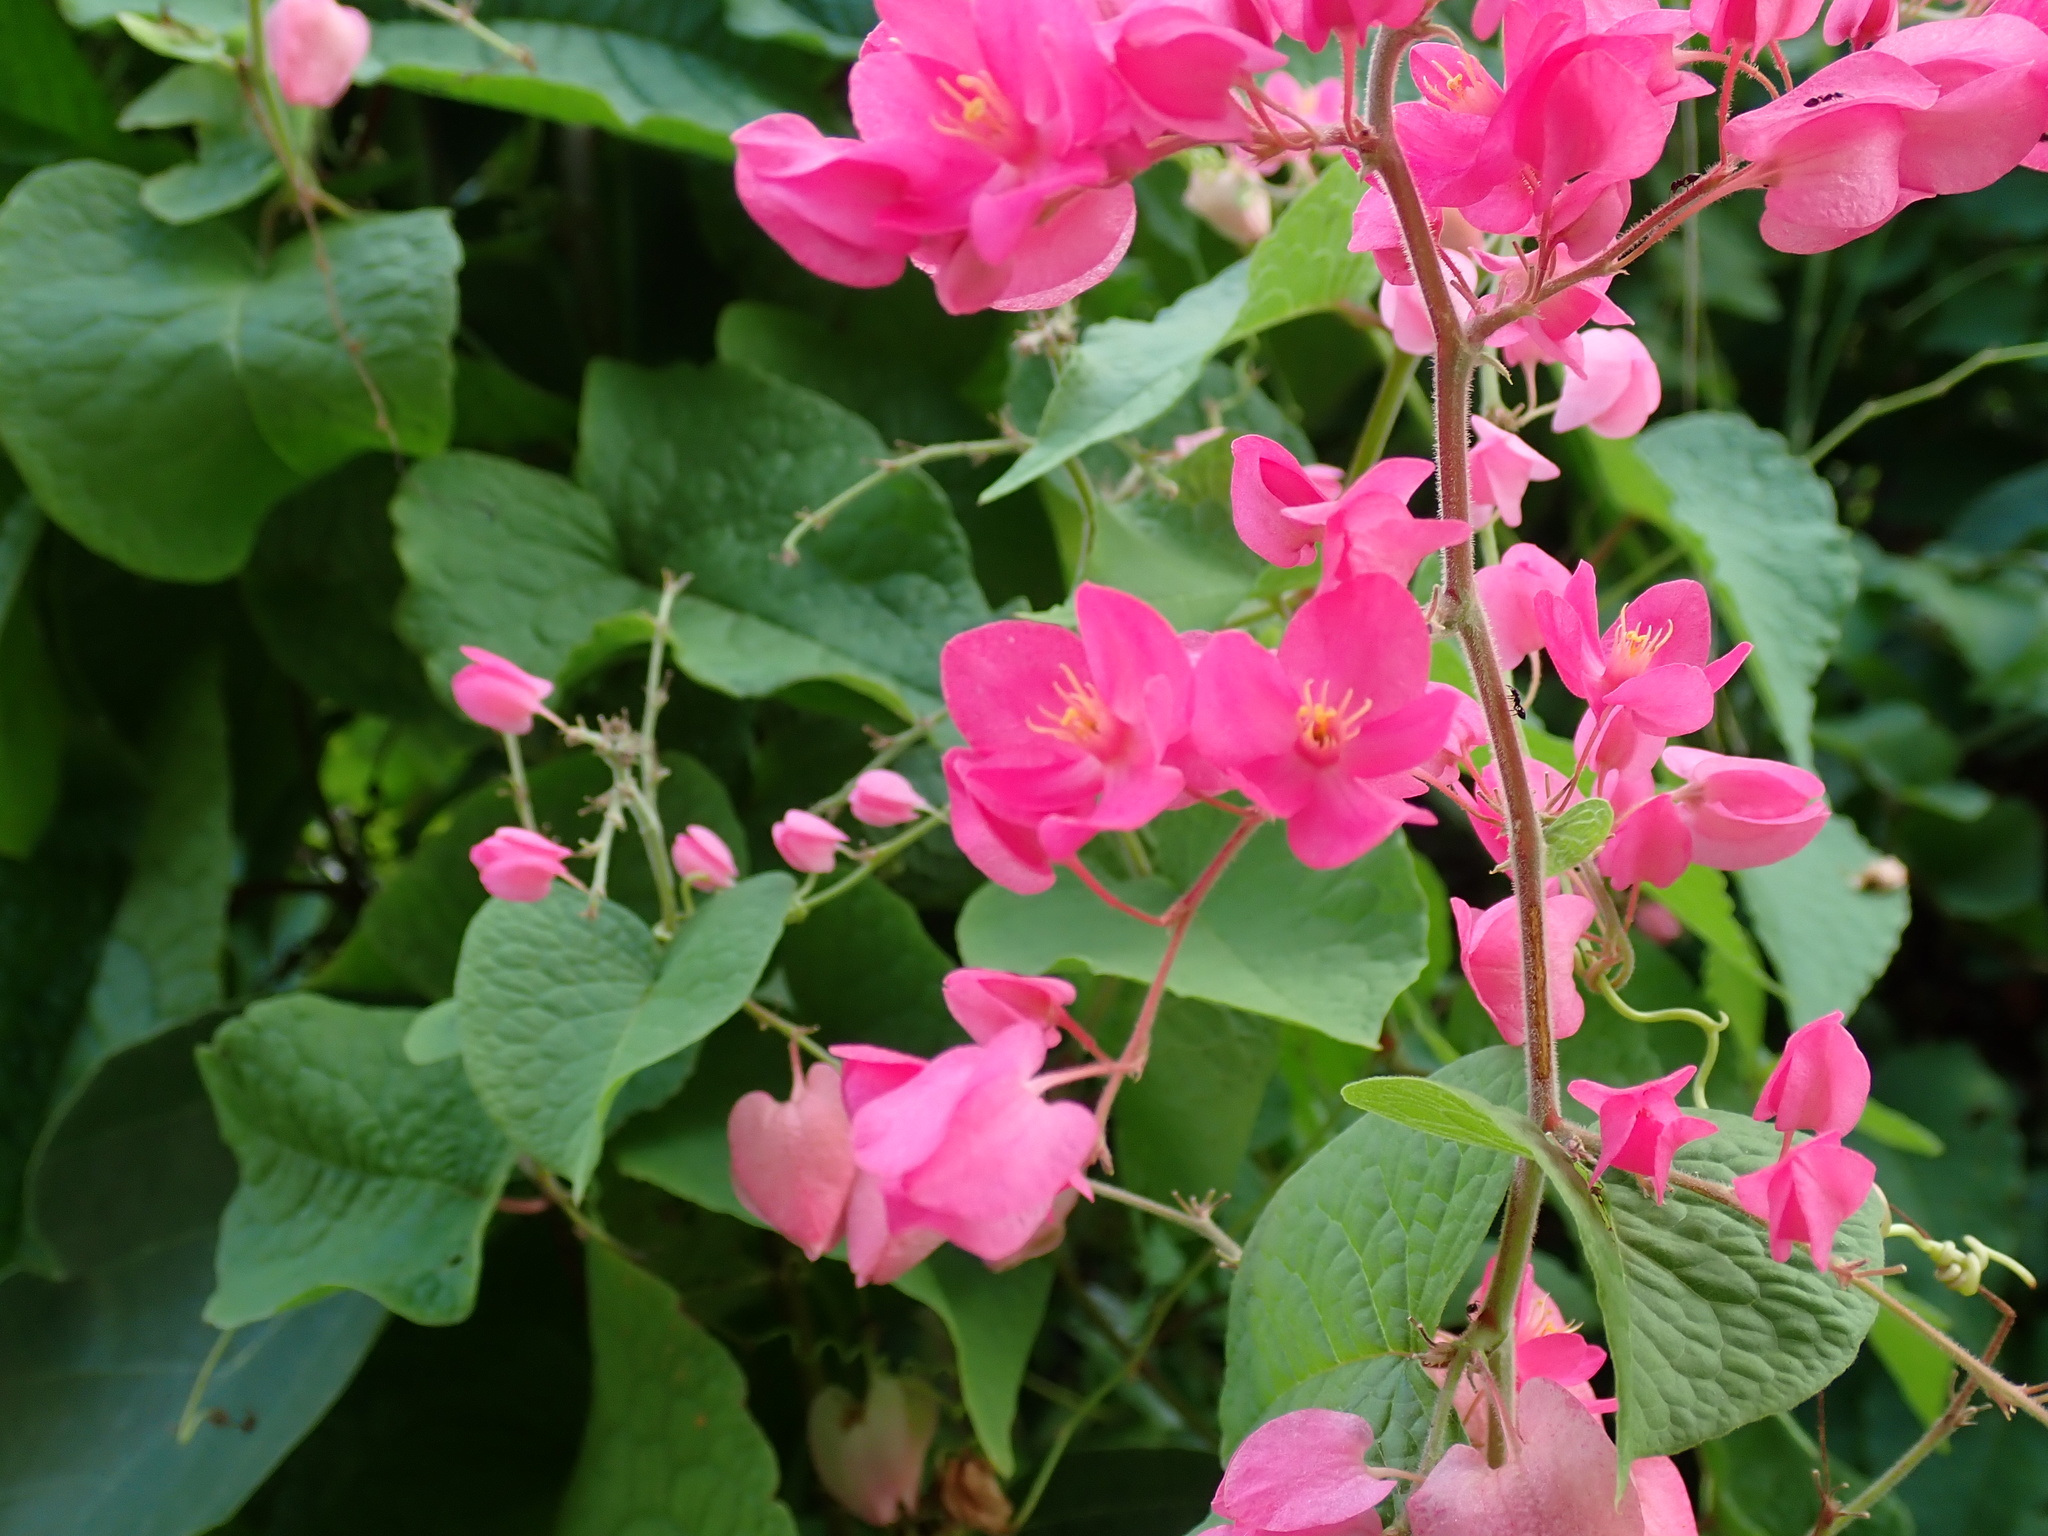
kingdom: Plantae
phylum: Tracheophyta
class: Magnoliopsida
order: Caryophyllales
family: Polygonaceae
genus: Antigonon
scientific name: Antigonon leptopus
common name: Coral vine
